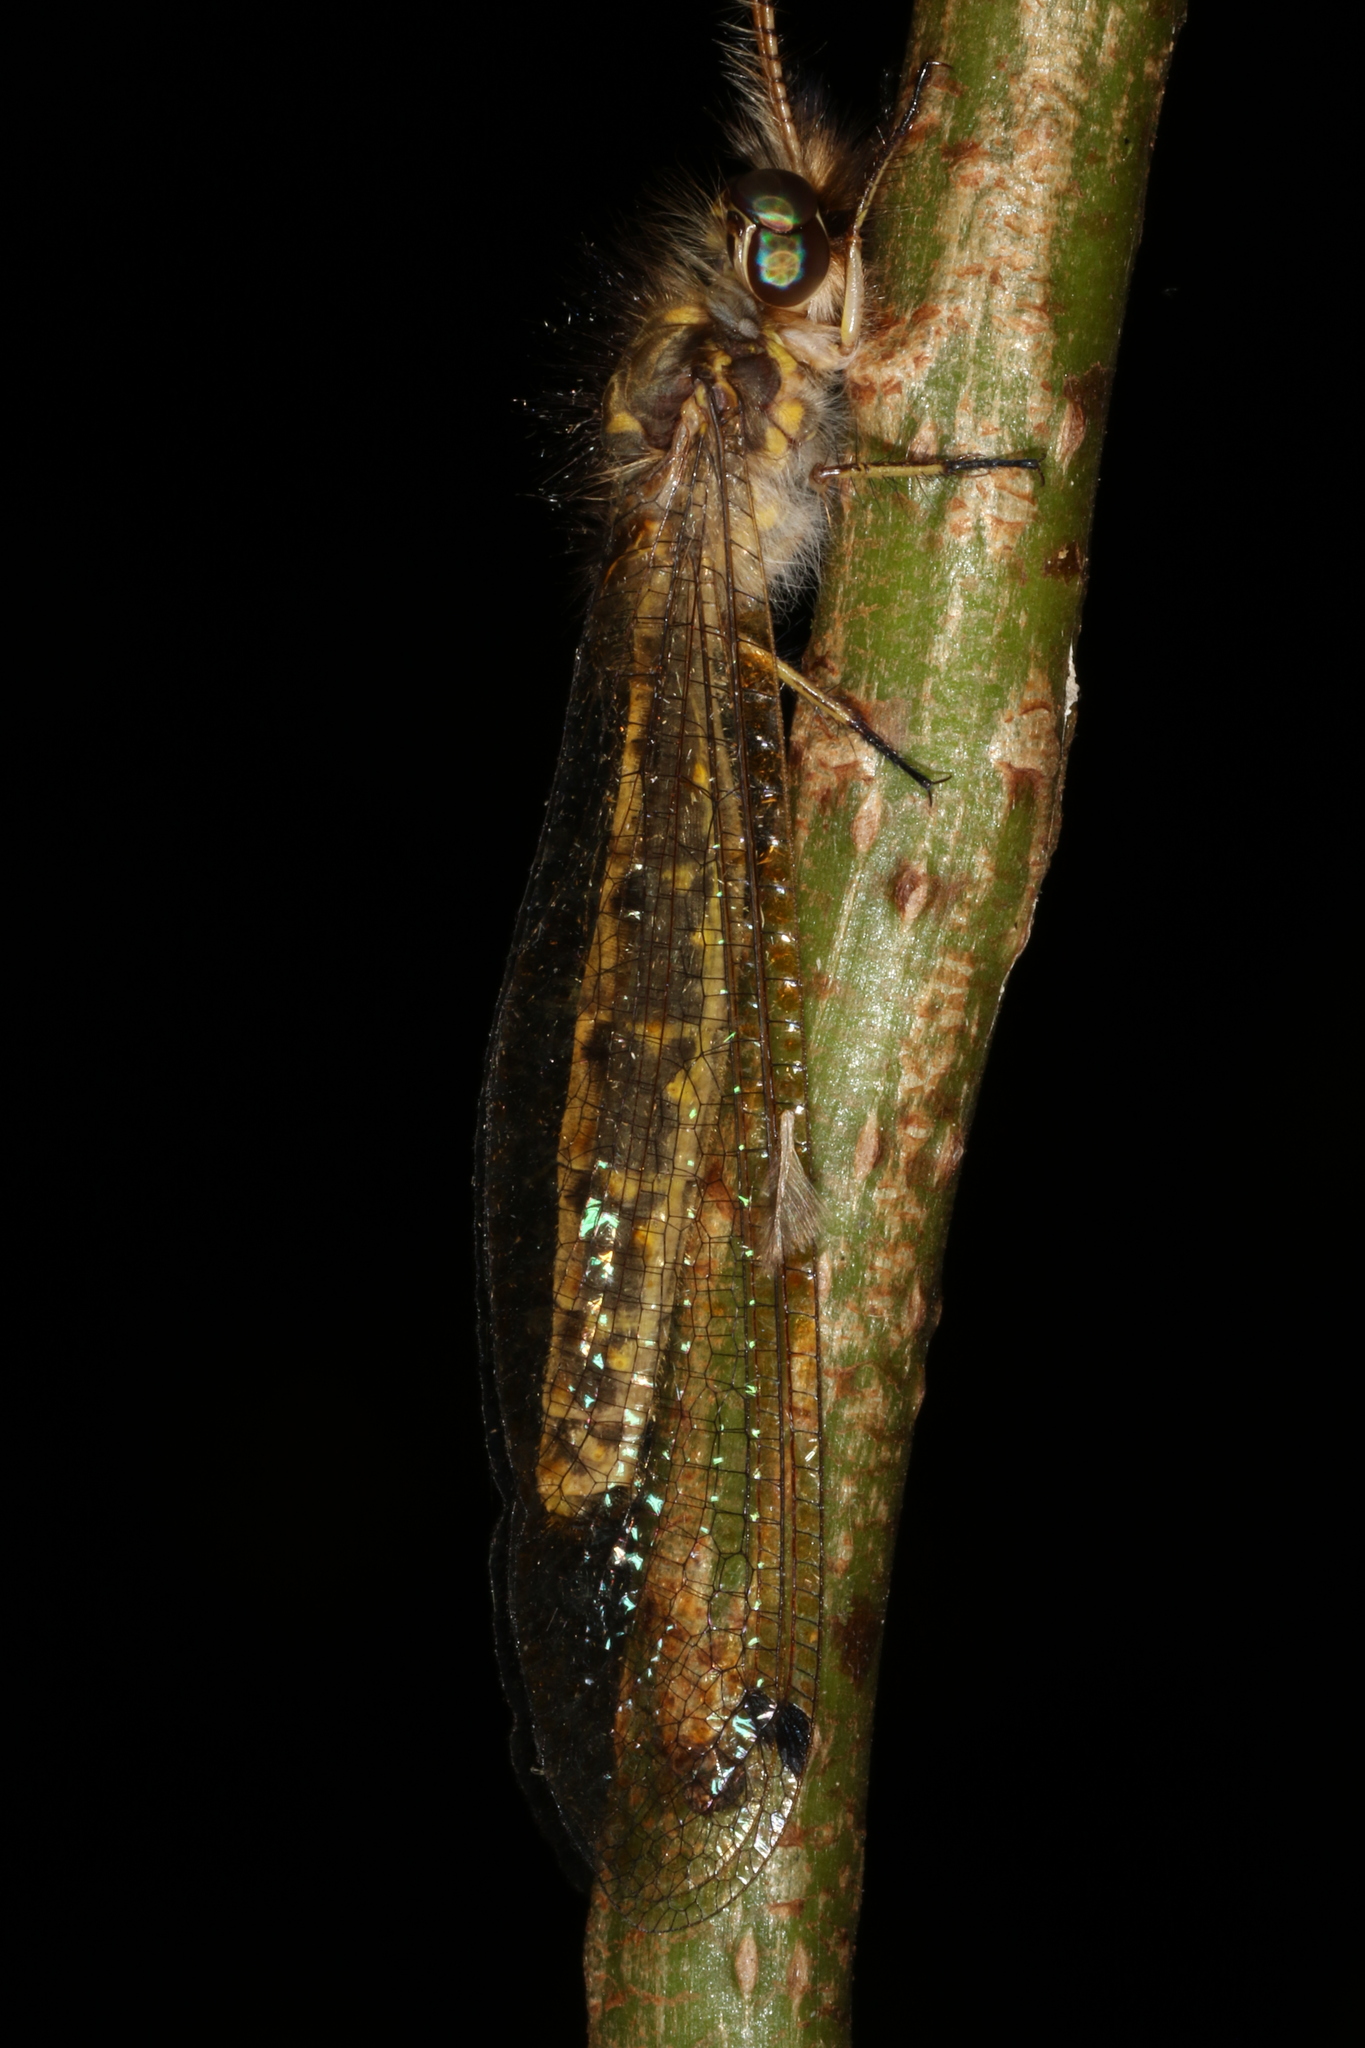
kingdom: Animalia
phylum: Arthropoda
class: Insecta
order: Neuroptera
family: Ascalaphidae
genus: Ameropterus
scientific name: Ameropterus versicolor
